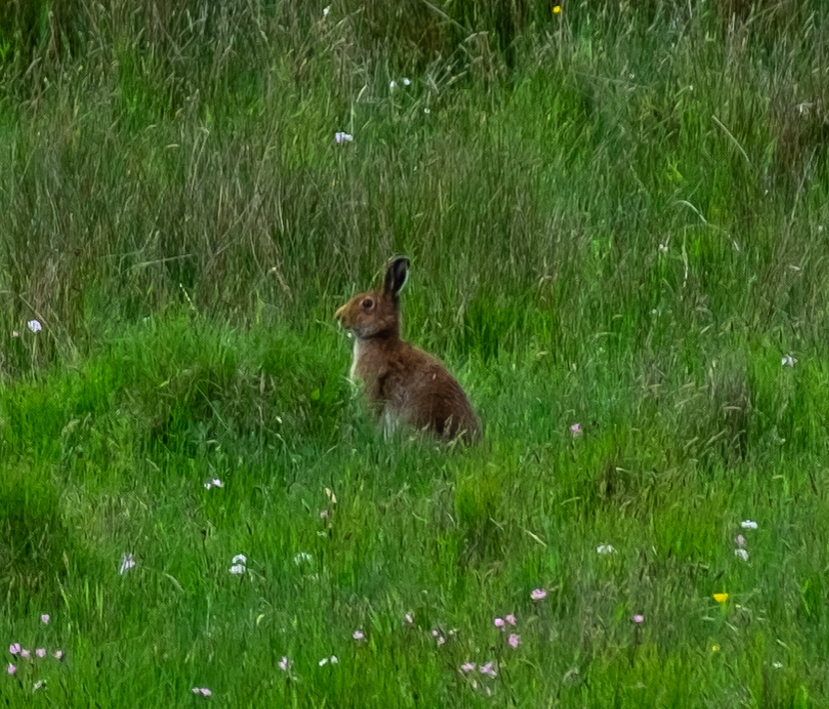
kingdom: Animalia
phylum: Chordata
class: Mammalia
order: Lagomorpha
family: Leporidae
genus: Lepus
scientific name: Lepus timidus
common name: Mountain hare
